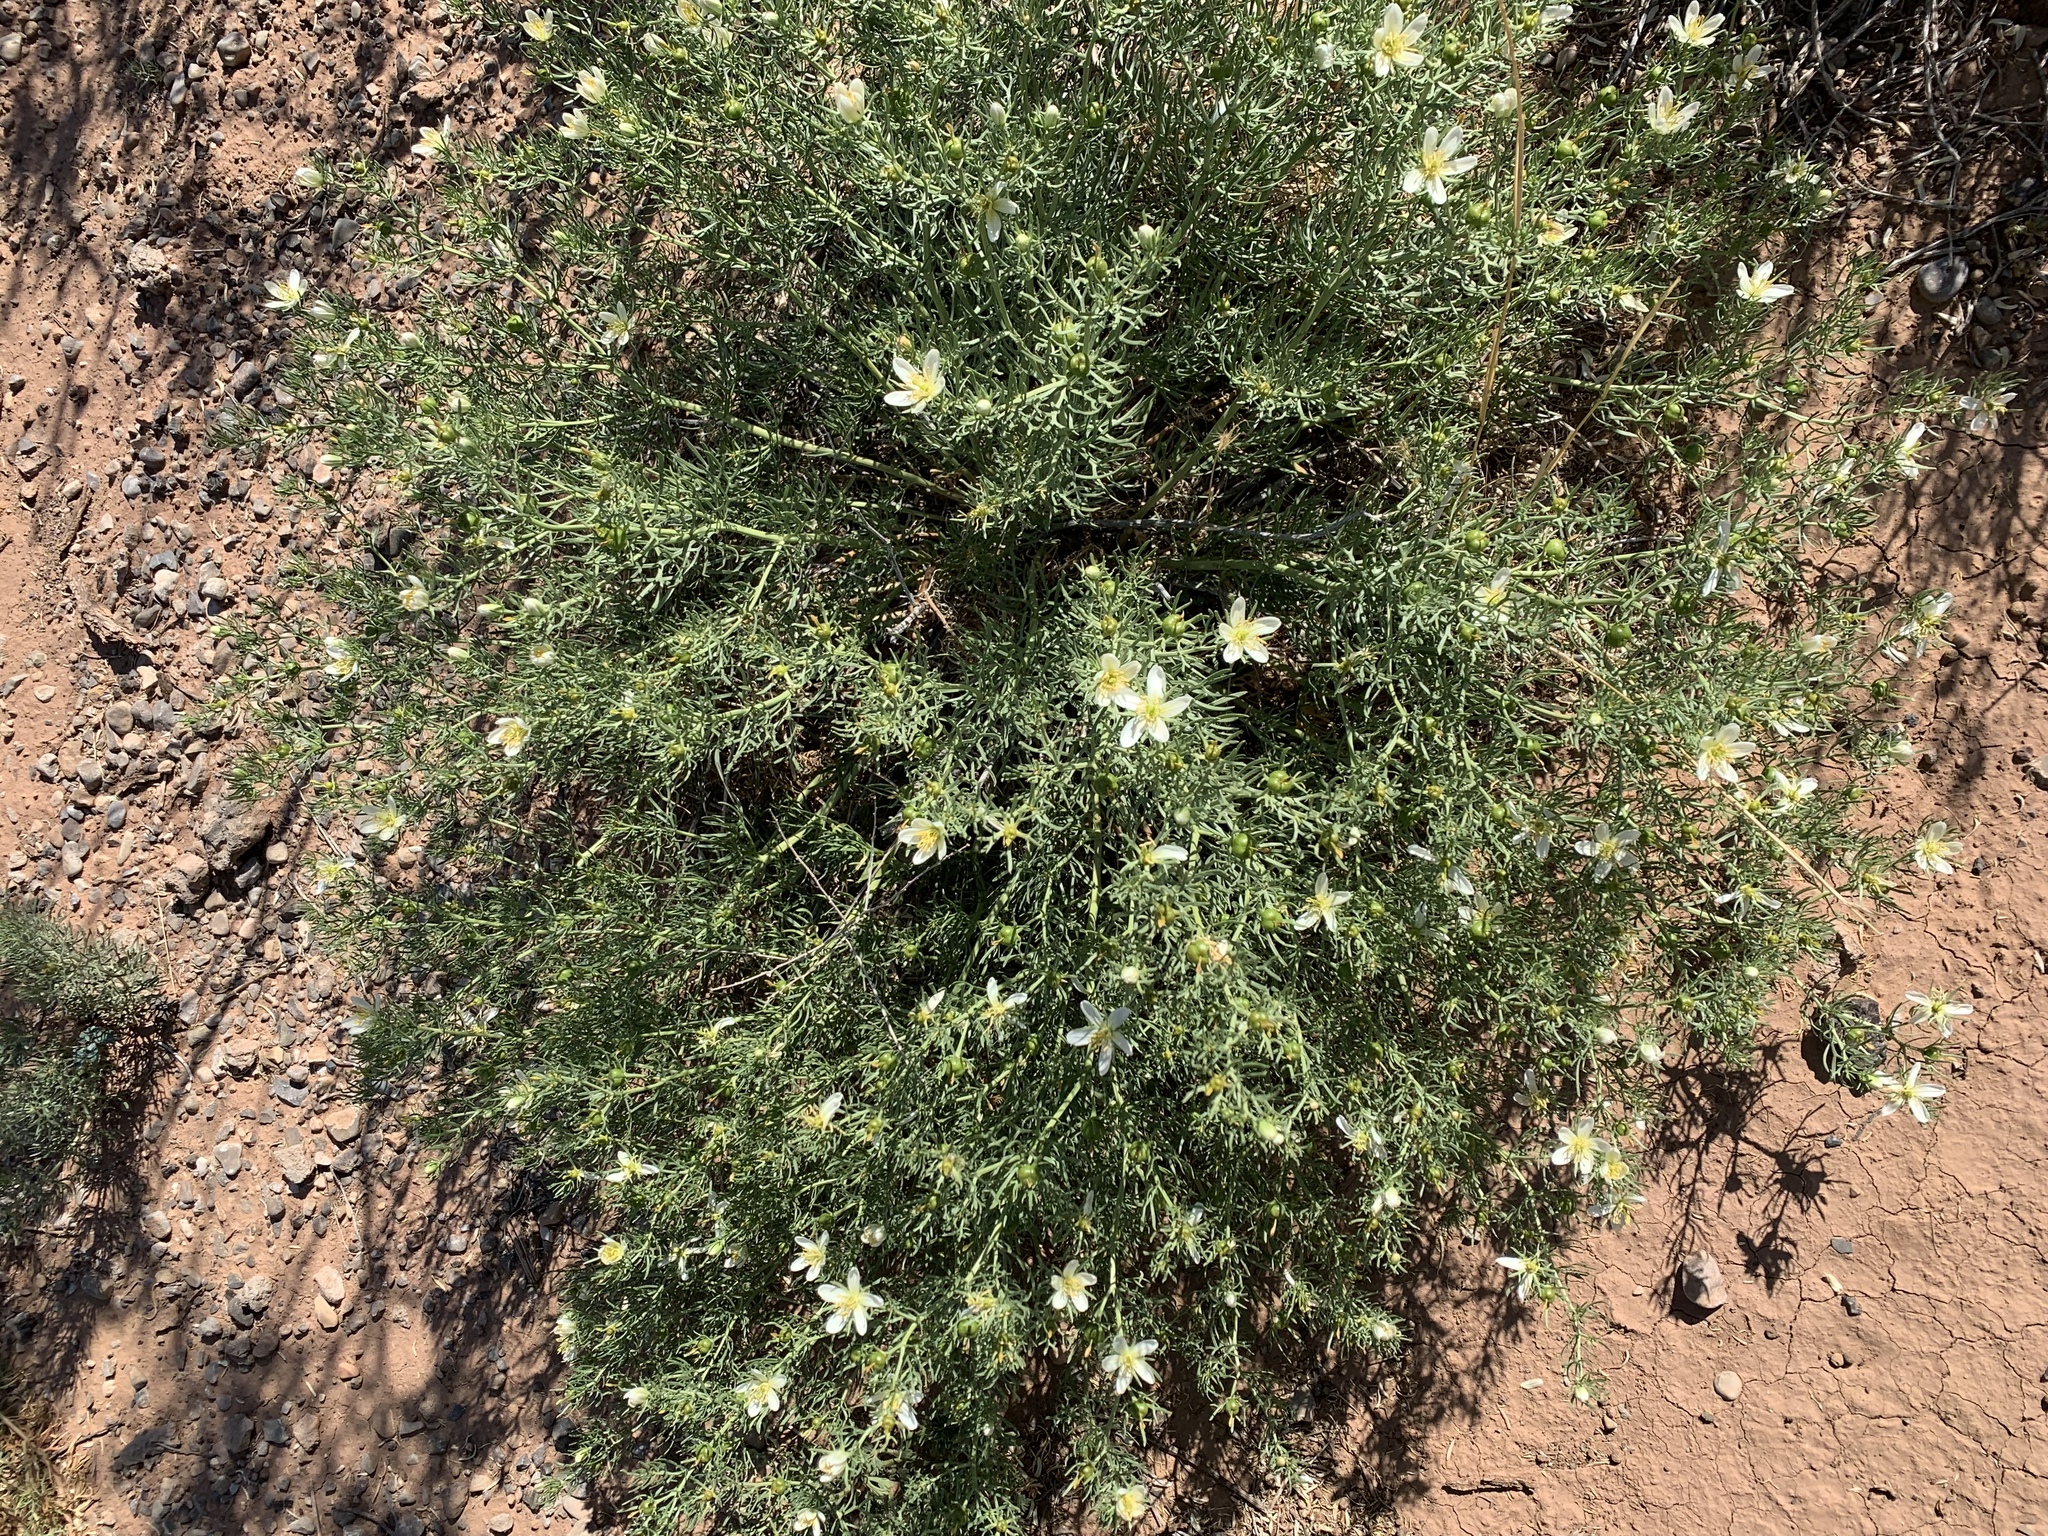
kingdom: Plantae
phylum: Tracheophyta
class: Magnoliopsida
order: Sapindales
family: Tetradiclidaceae
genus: Peganum
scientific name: Peganum harmala
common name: Harmal peganum
